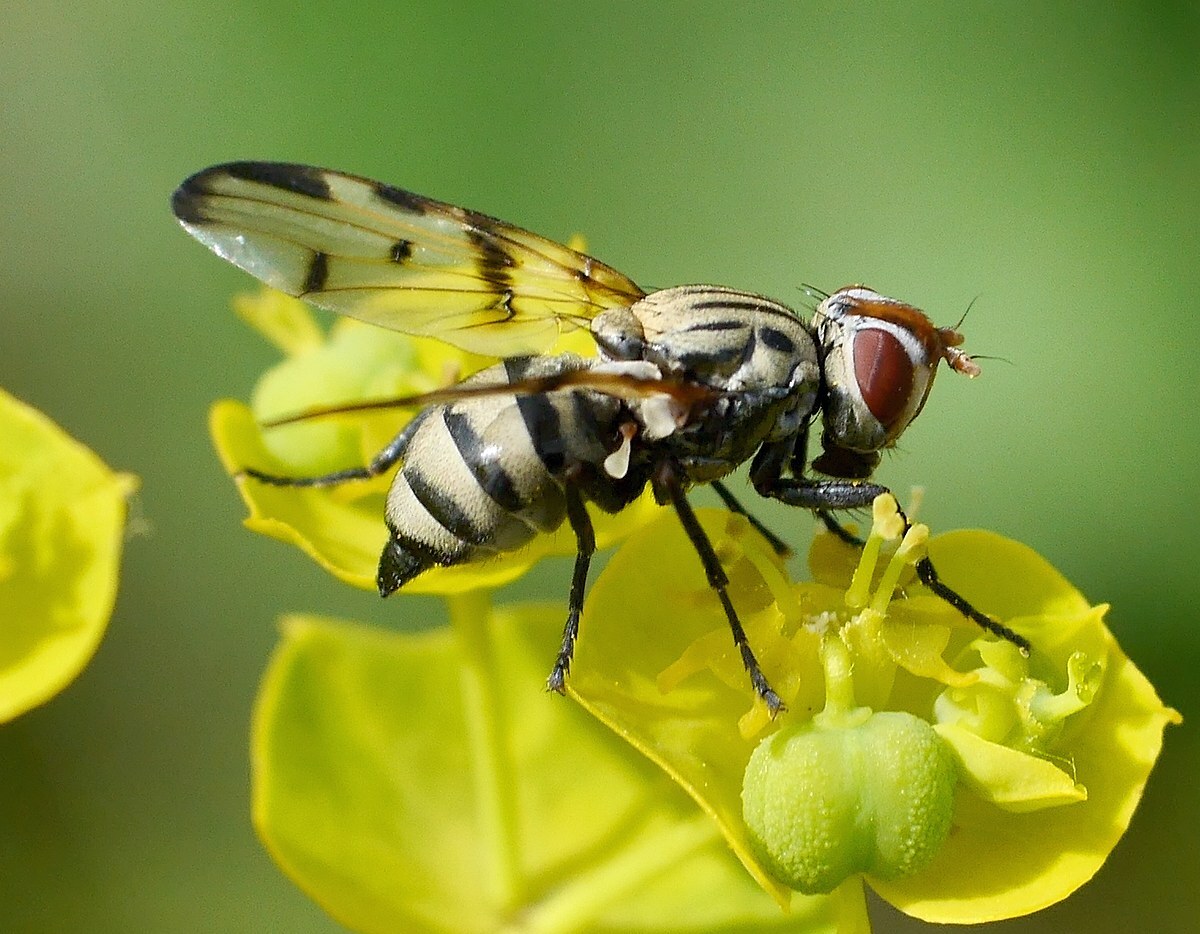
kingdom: Animalia
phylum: Arthropoda
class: Insecta
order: Diptera
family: Ulidiidae
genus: Otites
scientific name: Otites formosa
